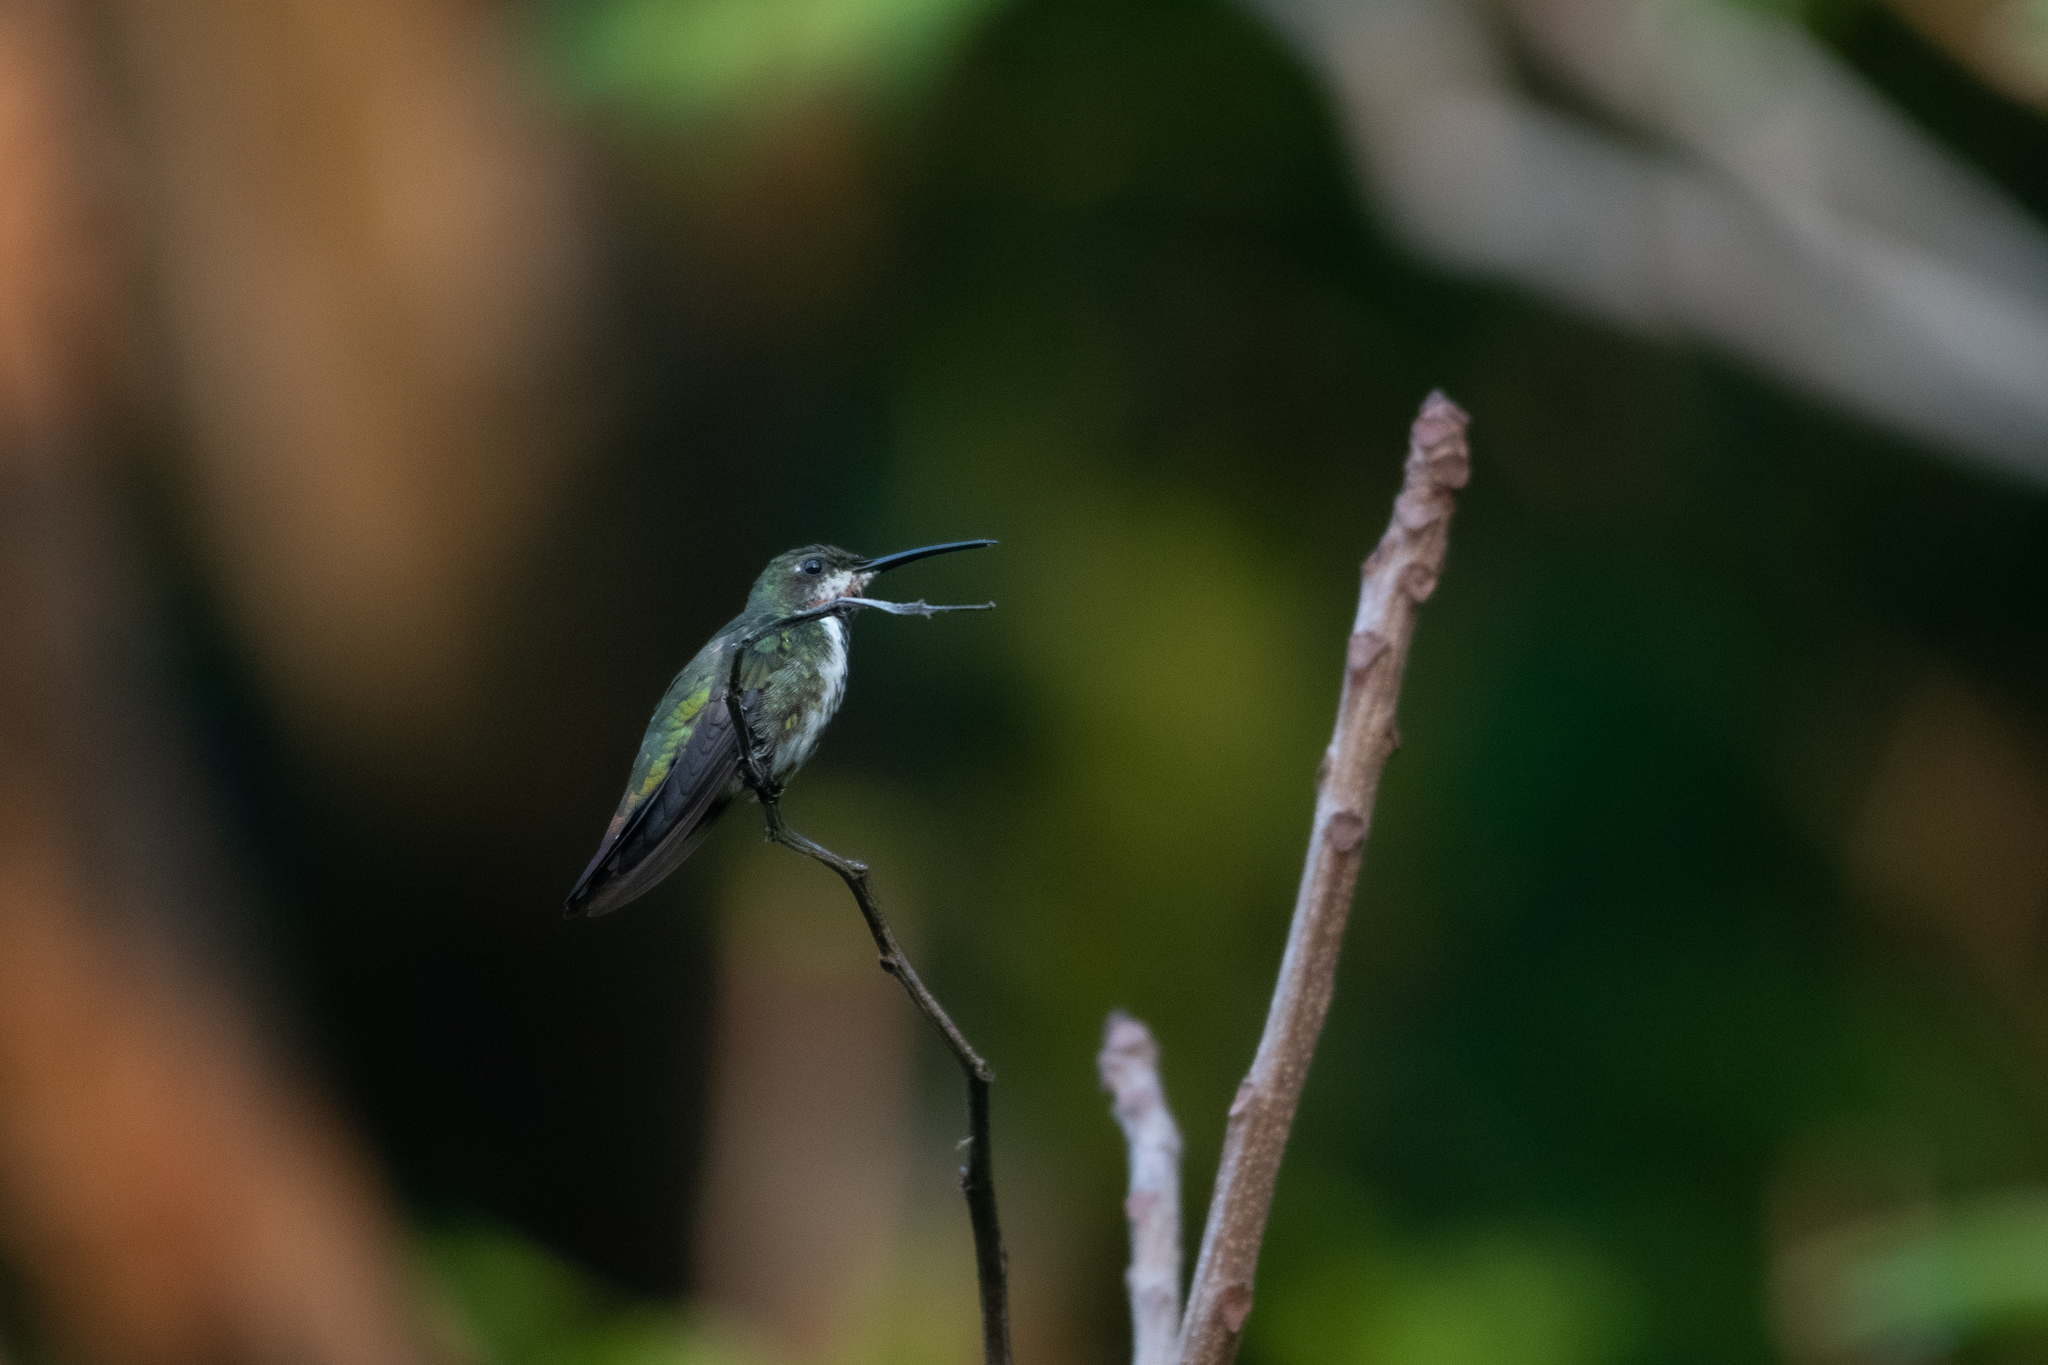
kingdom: Animalia
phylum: Chordata
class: Aves
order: Apodiformes
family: Trochilidae
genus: Anthracothorax
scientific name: Anthracothorax prevostii
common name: Green-breasted mango
